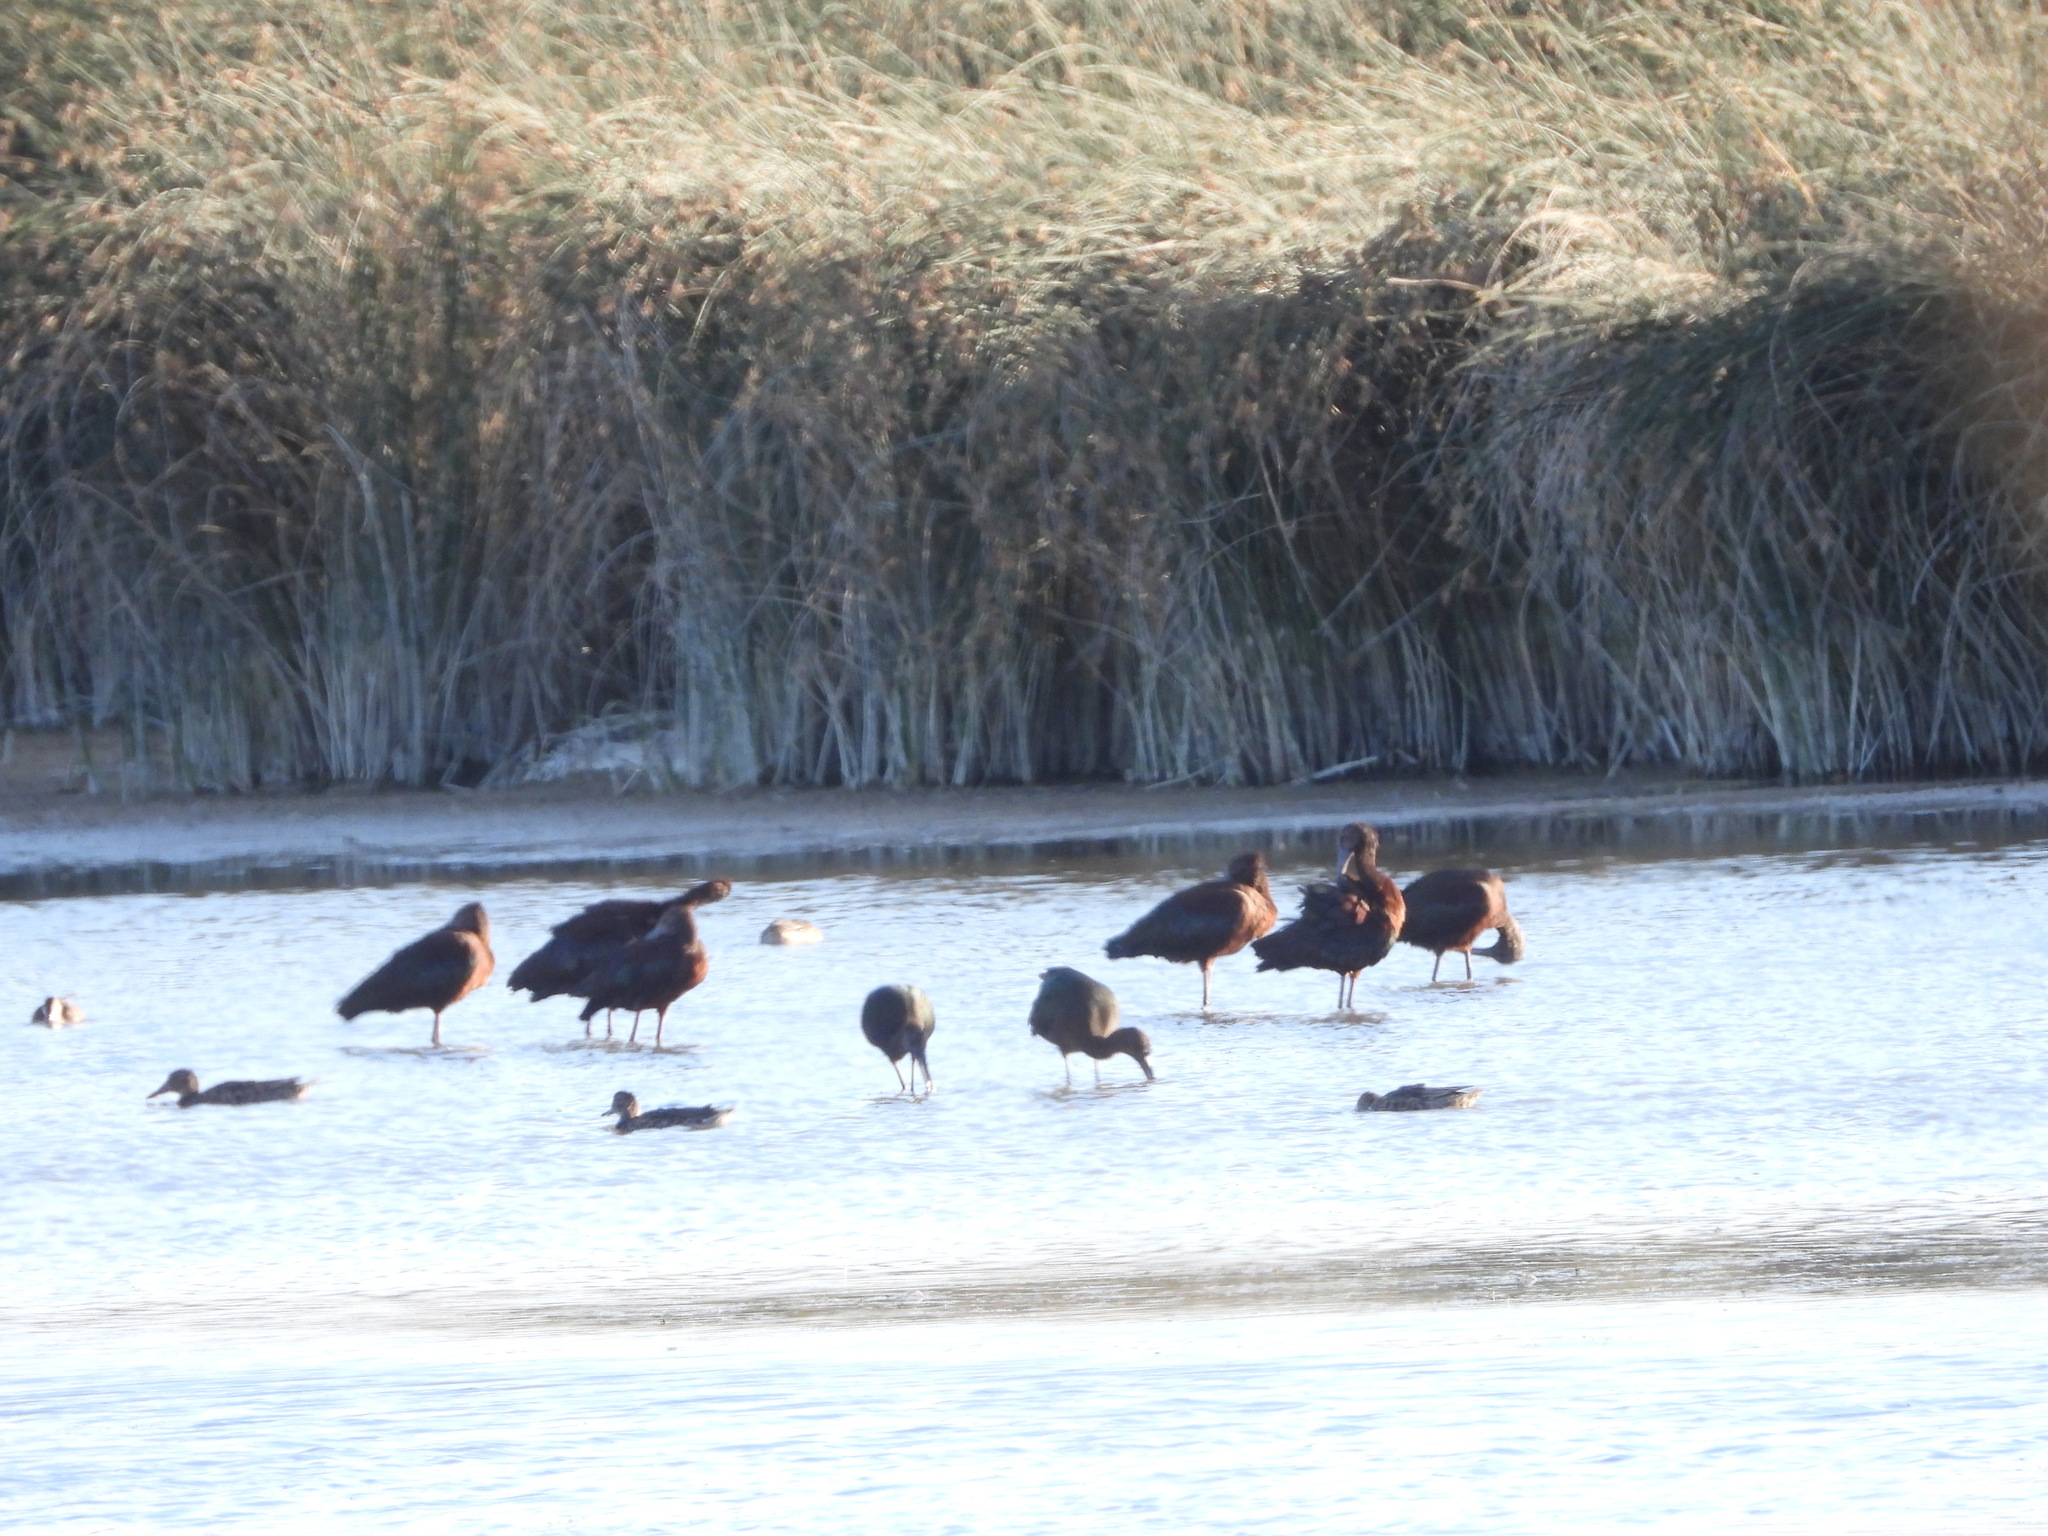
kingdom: Animalia
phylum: Chordata
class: Aves
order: Pelecaniformes
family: Threskiornithidae
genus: Plegadis
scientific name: Plegadis chihi
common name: White-faced ibis
